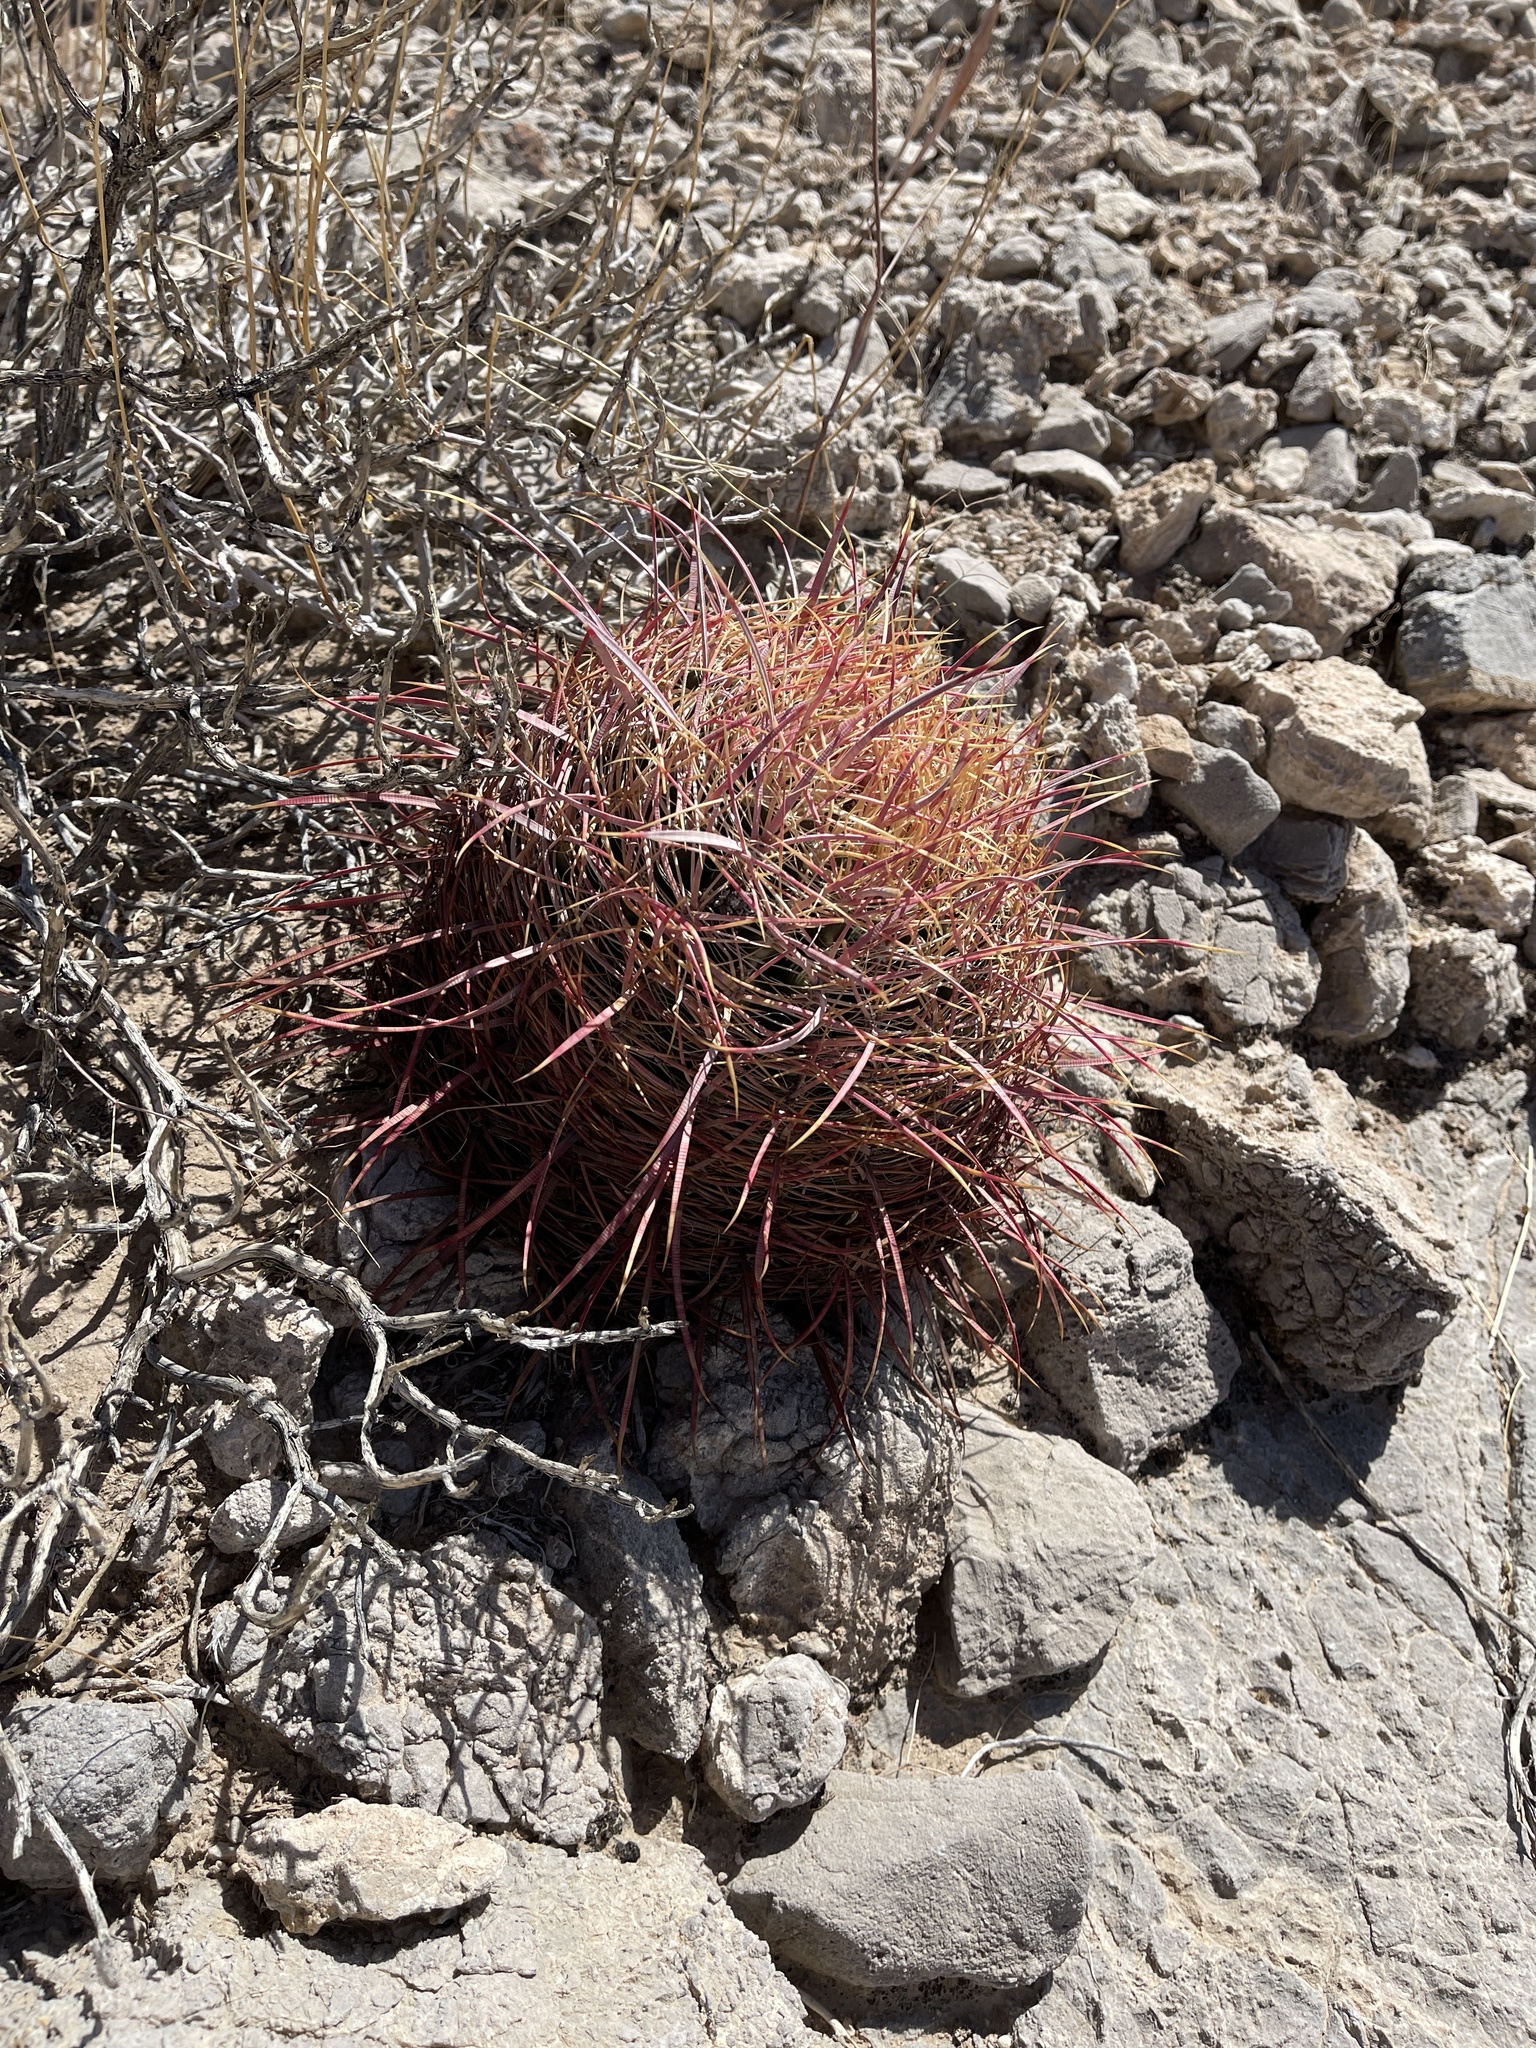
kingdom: Plantae
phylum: Tracheophyta
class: Magnoliopsida
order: Caryophyllales
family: Cactaceae
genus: Ferocactus
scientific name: Ferocactus cylindraceus
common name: California barrel cactus
